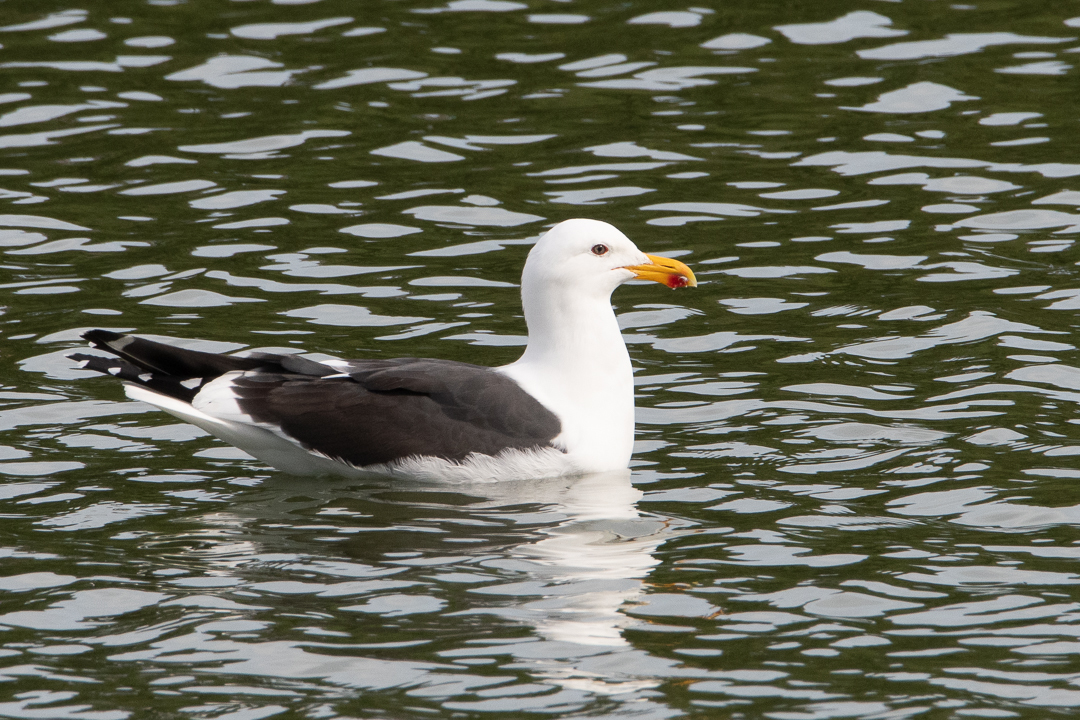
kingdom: Animalia
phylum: Chordata
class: Aves
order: Charadriiformes
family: Laridae
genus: Larus
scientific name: Larus dominicanus
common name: Kelp gull
